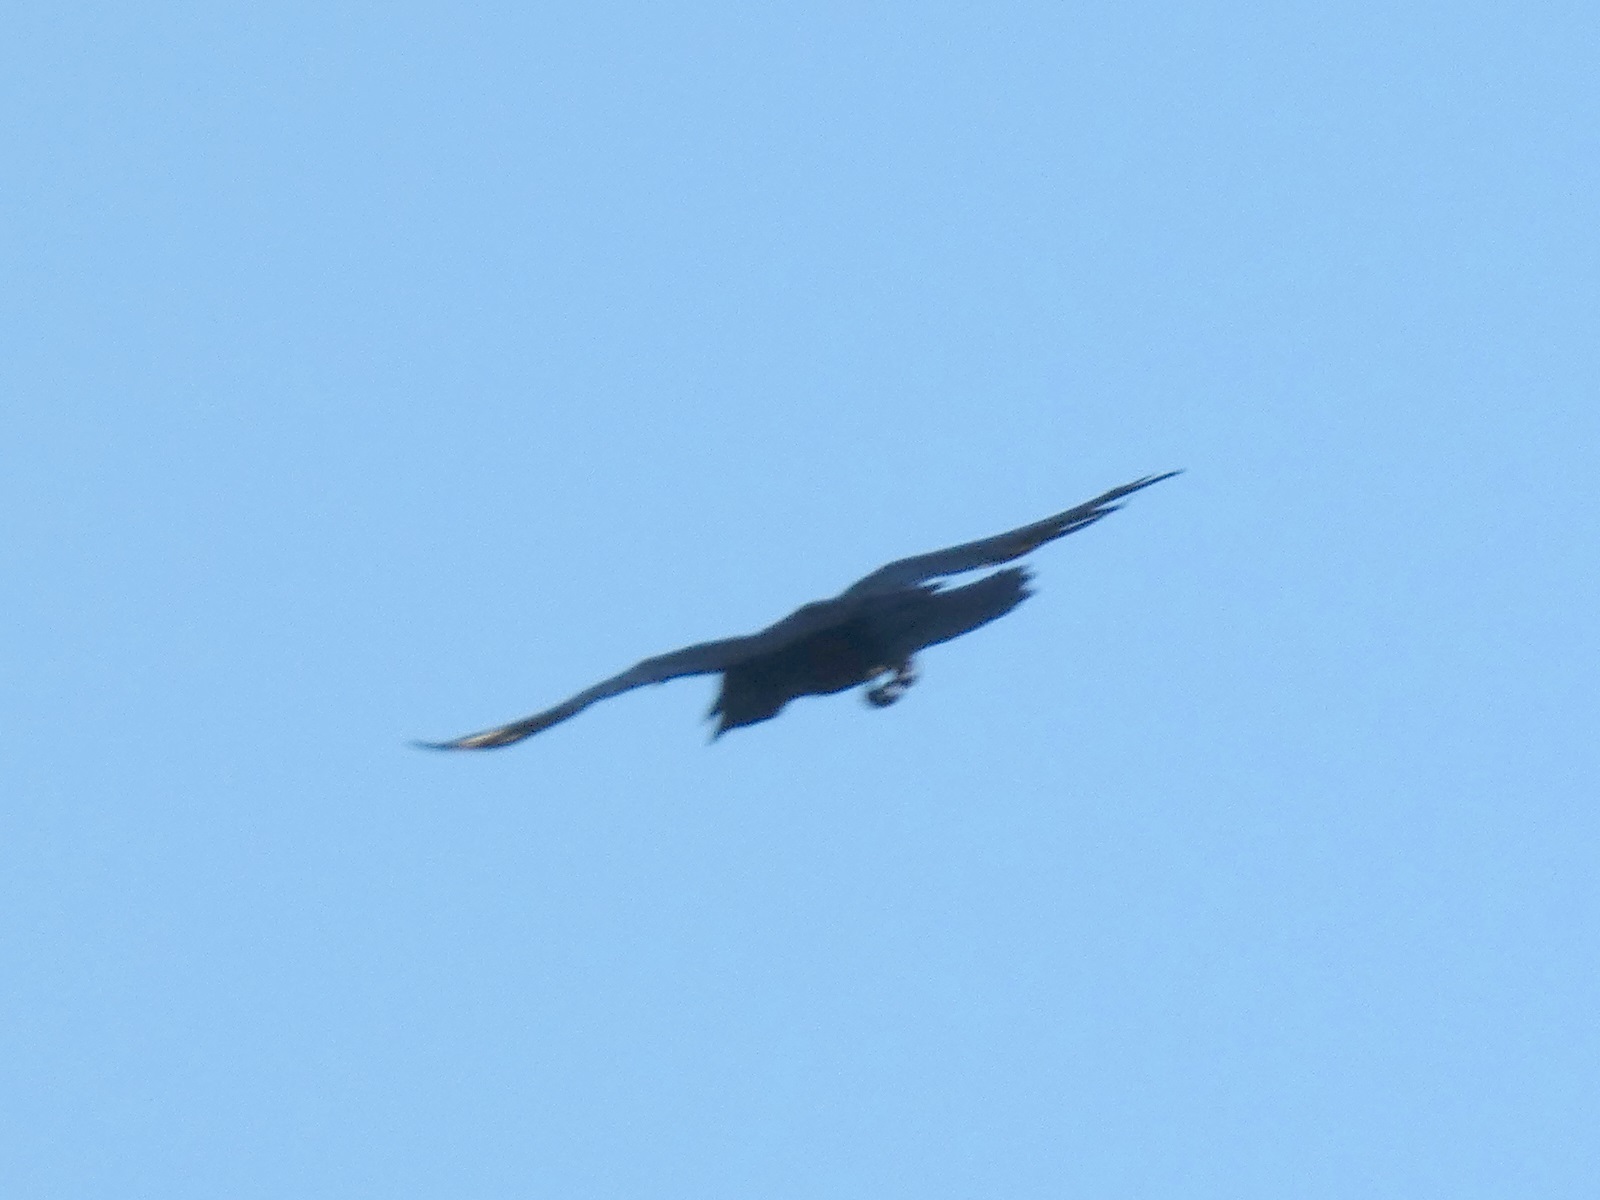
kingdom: Animalia
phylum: Chordata
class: Aves
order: Passeriformes
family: Corvidae
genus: Corvus
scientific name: Corvus corax
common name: Common raven
